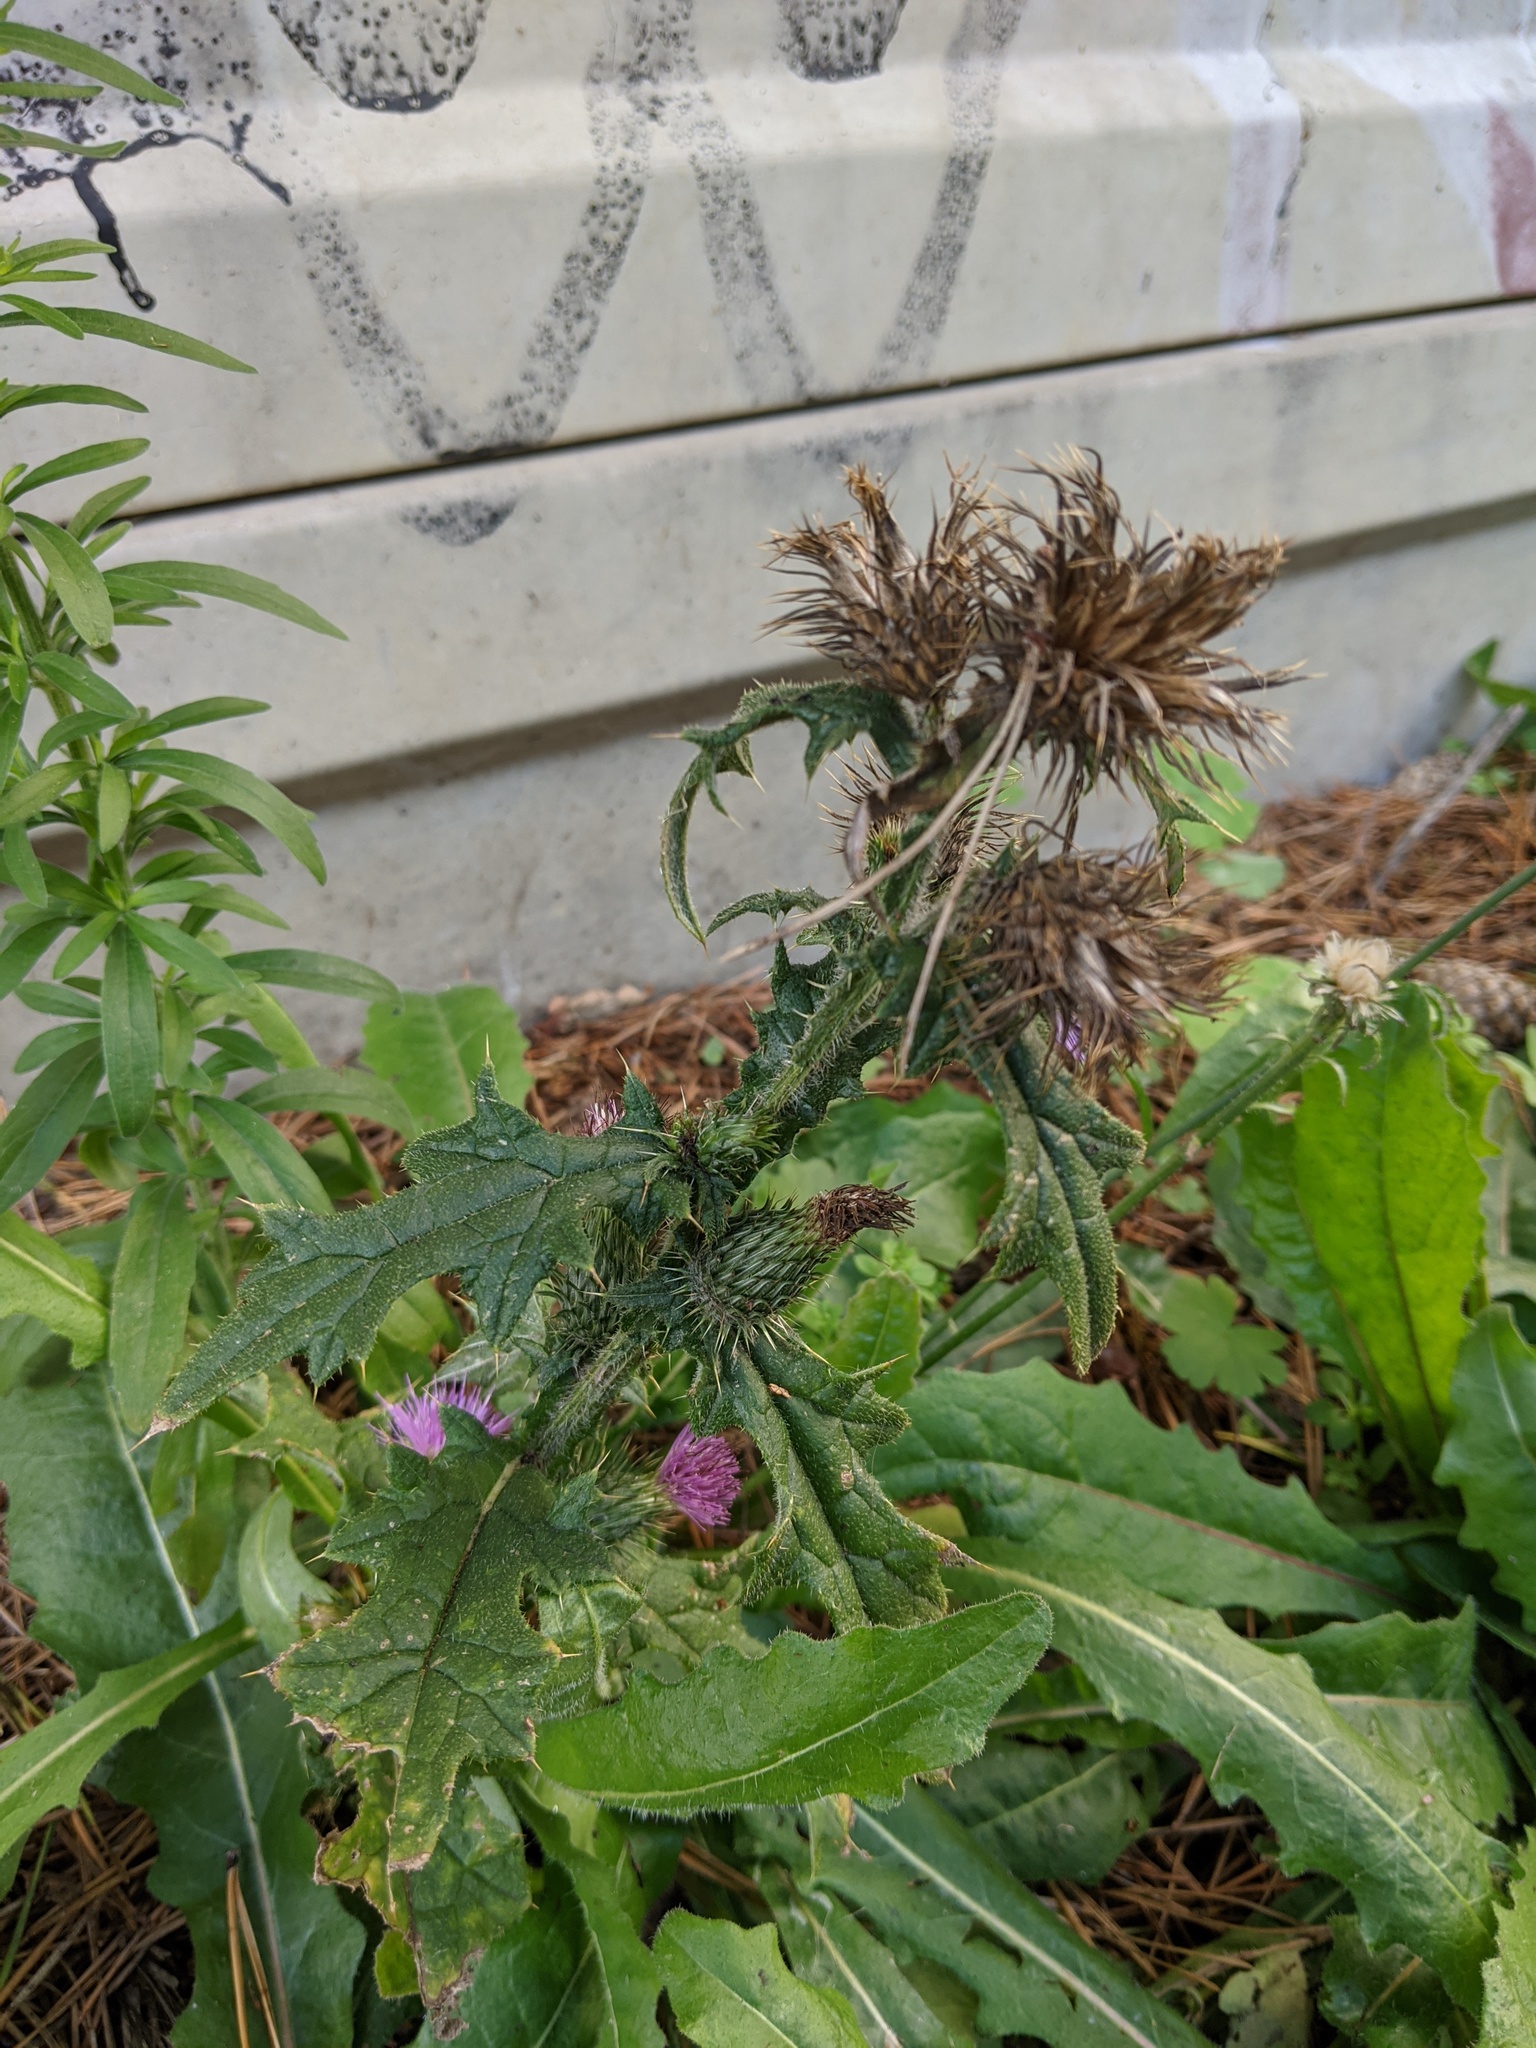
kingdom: Plantae
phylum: Tracheophyta
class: Magnoliopsida
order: Asterales
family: Asteraceae
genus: Cirsium
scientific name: Cirsium vulgare
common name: Bull thistle
